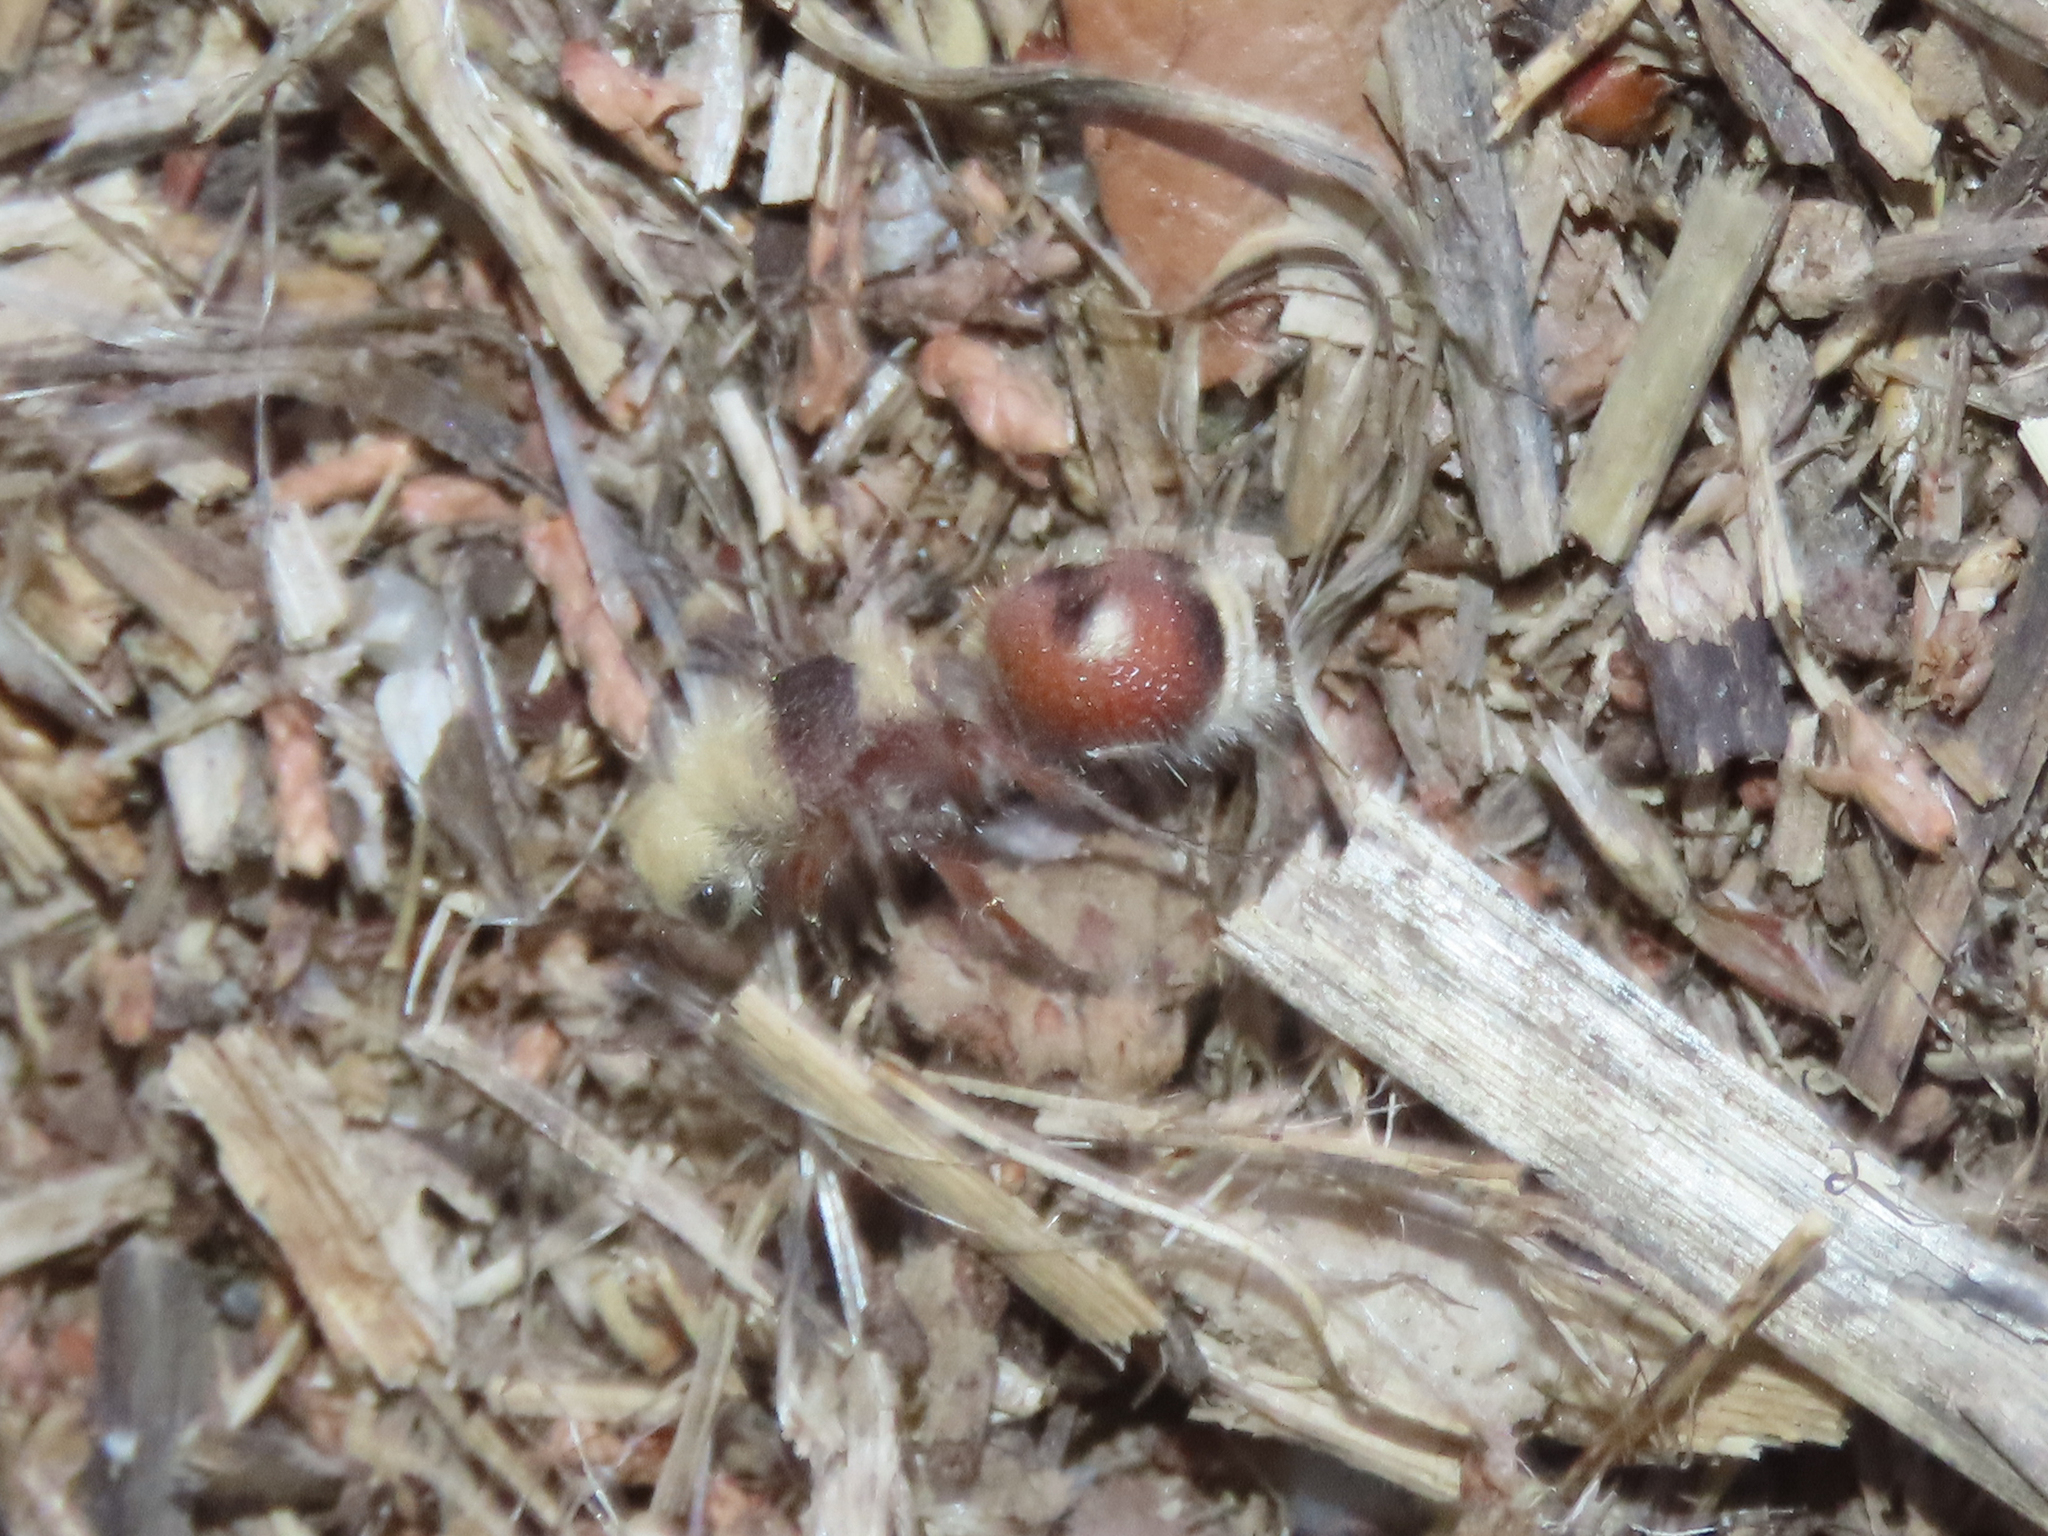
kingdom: Animalia
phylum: Arthropoda
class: Insecta
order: Hymenoptera
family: Mutillidae
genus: Dasymutilla
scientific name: Dasymutilla
